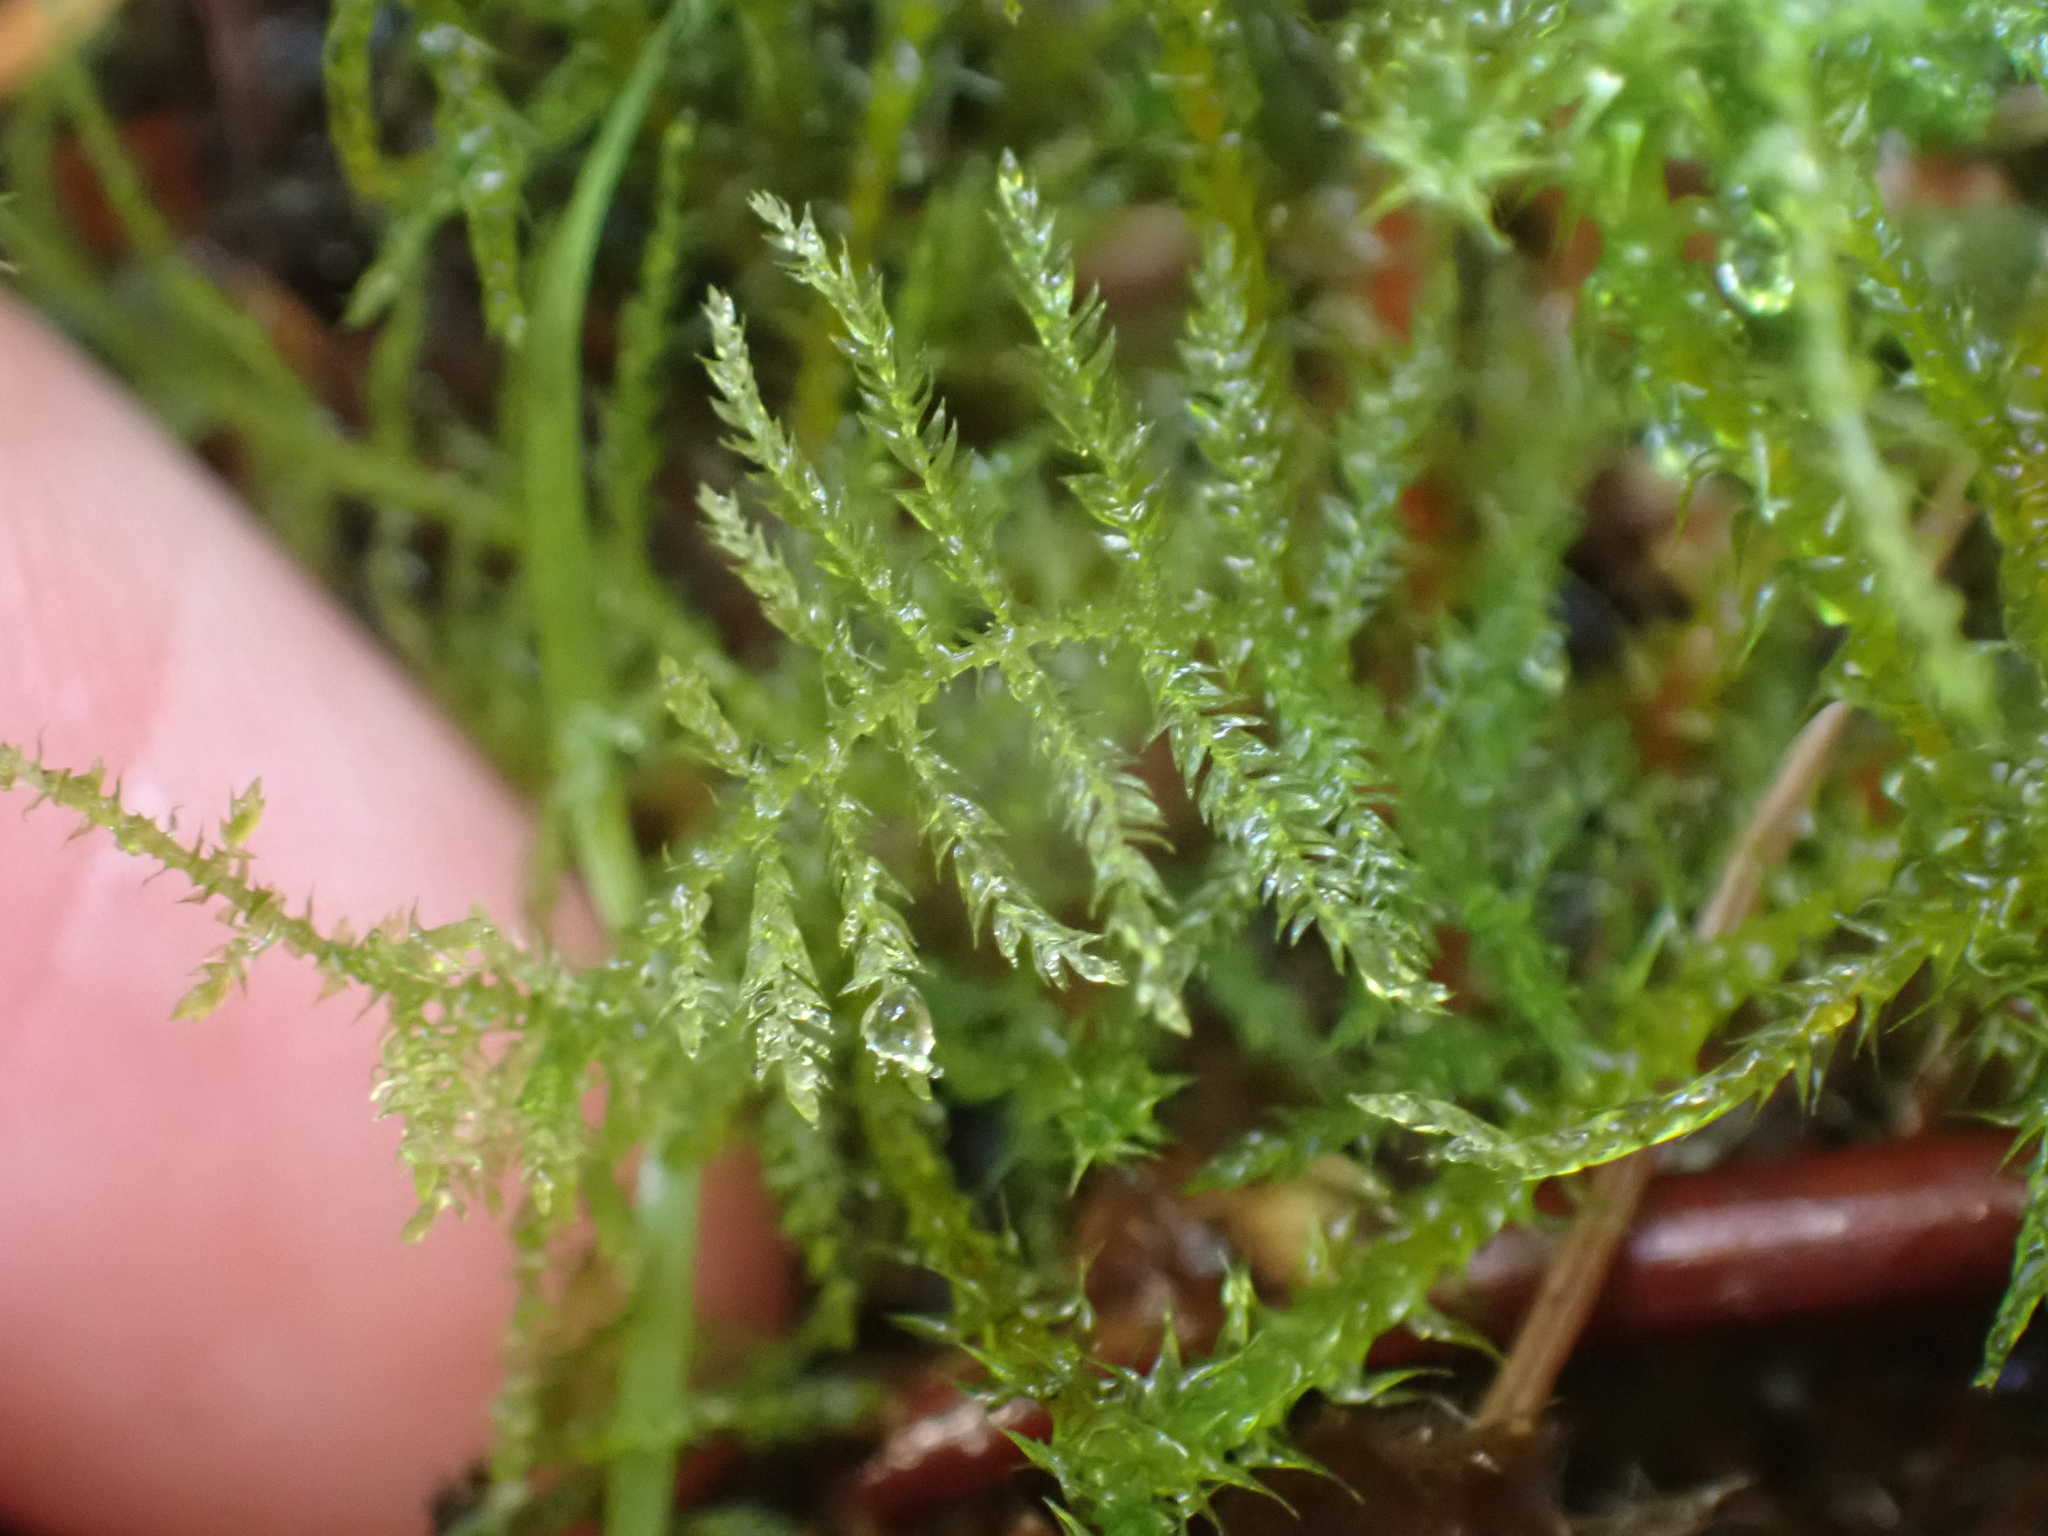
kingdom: Plantae
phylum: Bryophyta
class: Bryopsida
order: Hypnales
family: Brachytheciaceae
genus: Kindbergia
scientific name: Kindbergia praelonga
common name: Slender beaked moss
